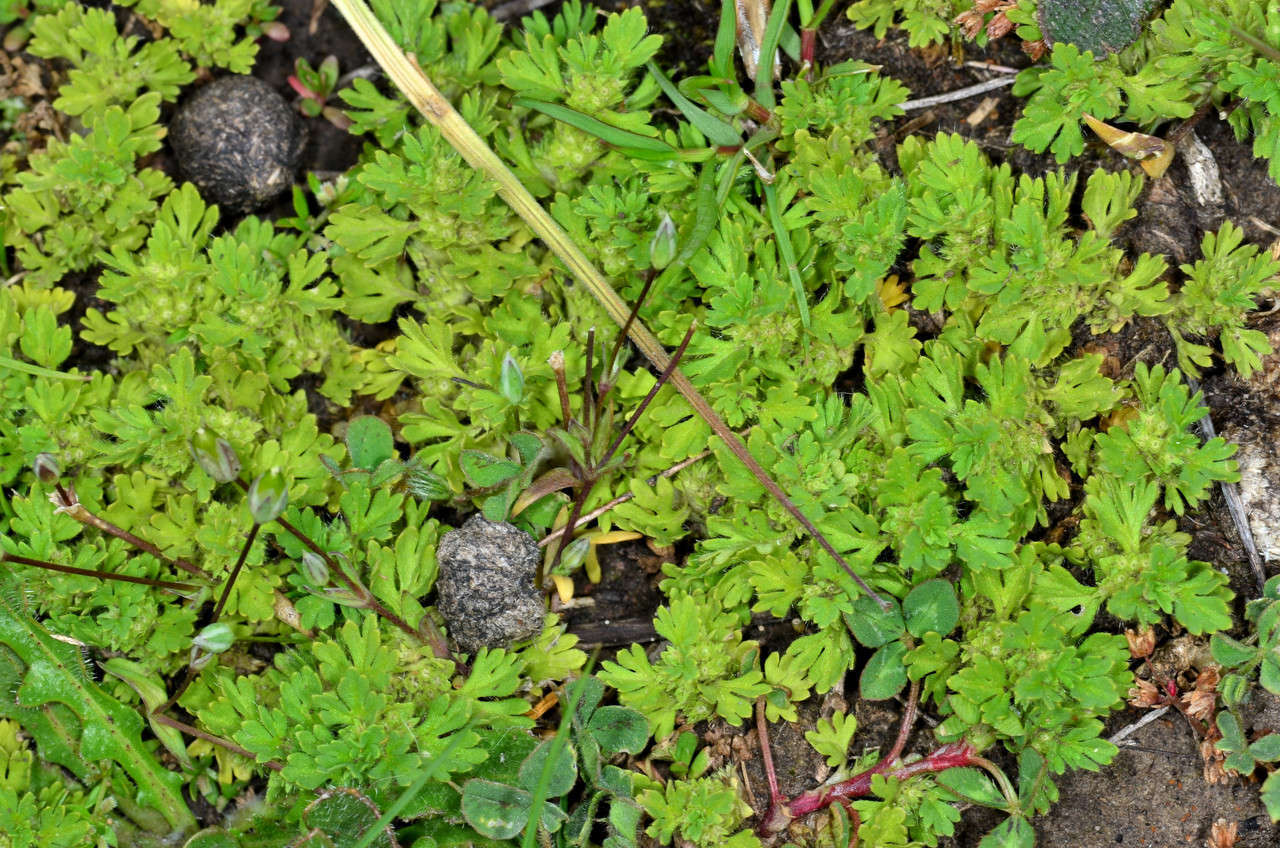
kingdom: Plantae
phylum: Tracheophyta
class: Magnoliopsida
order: Rosales
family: Rosaceae
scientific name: Rosaceae
